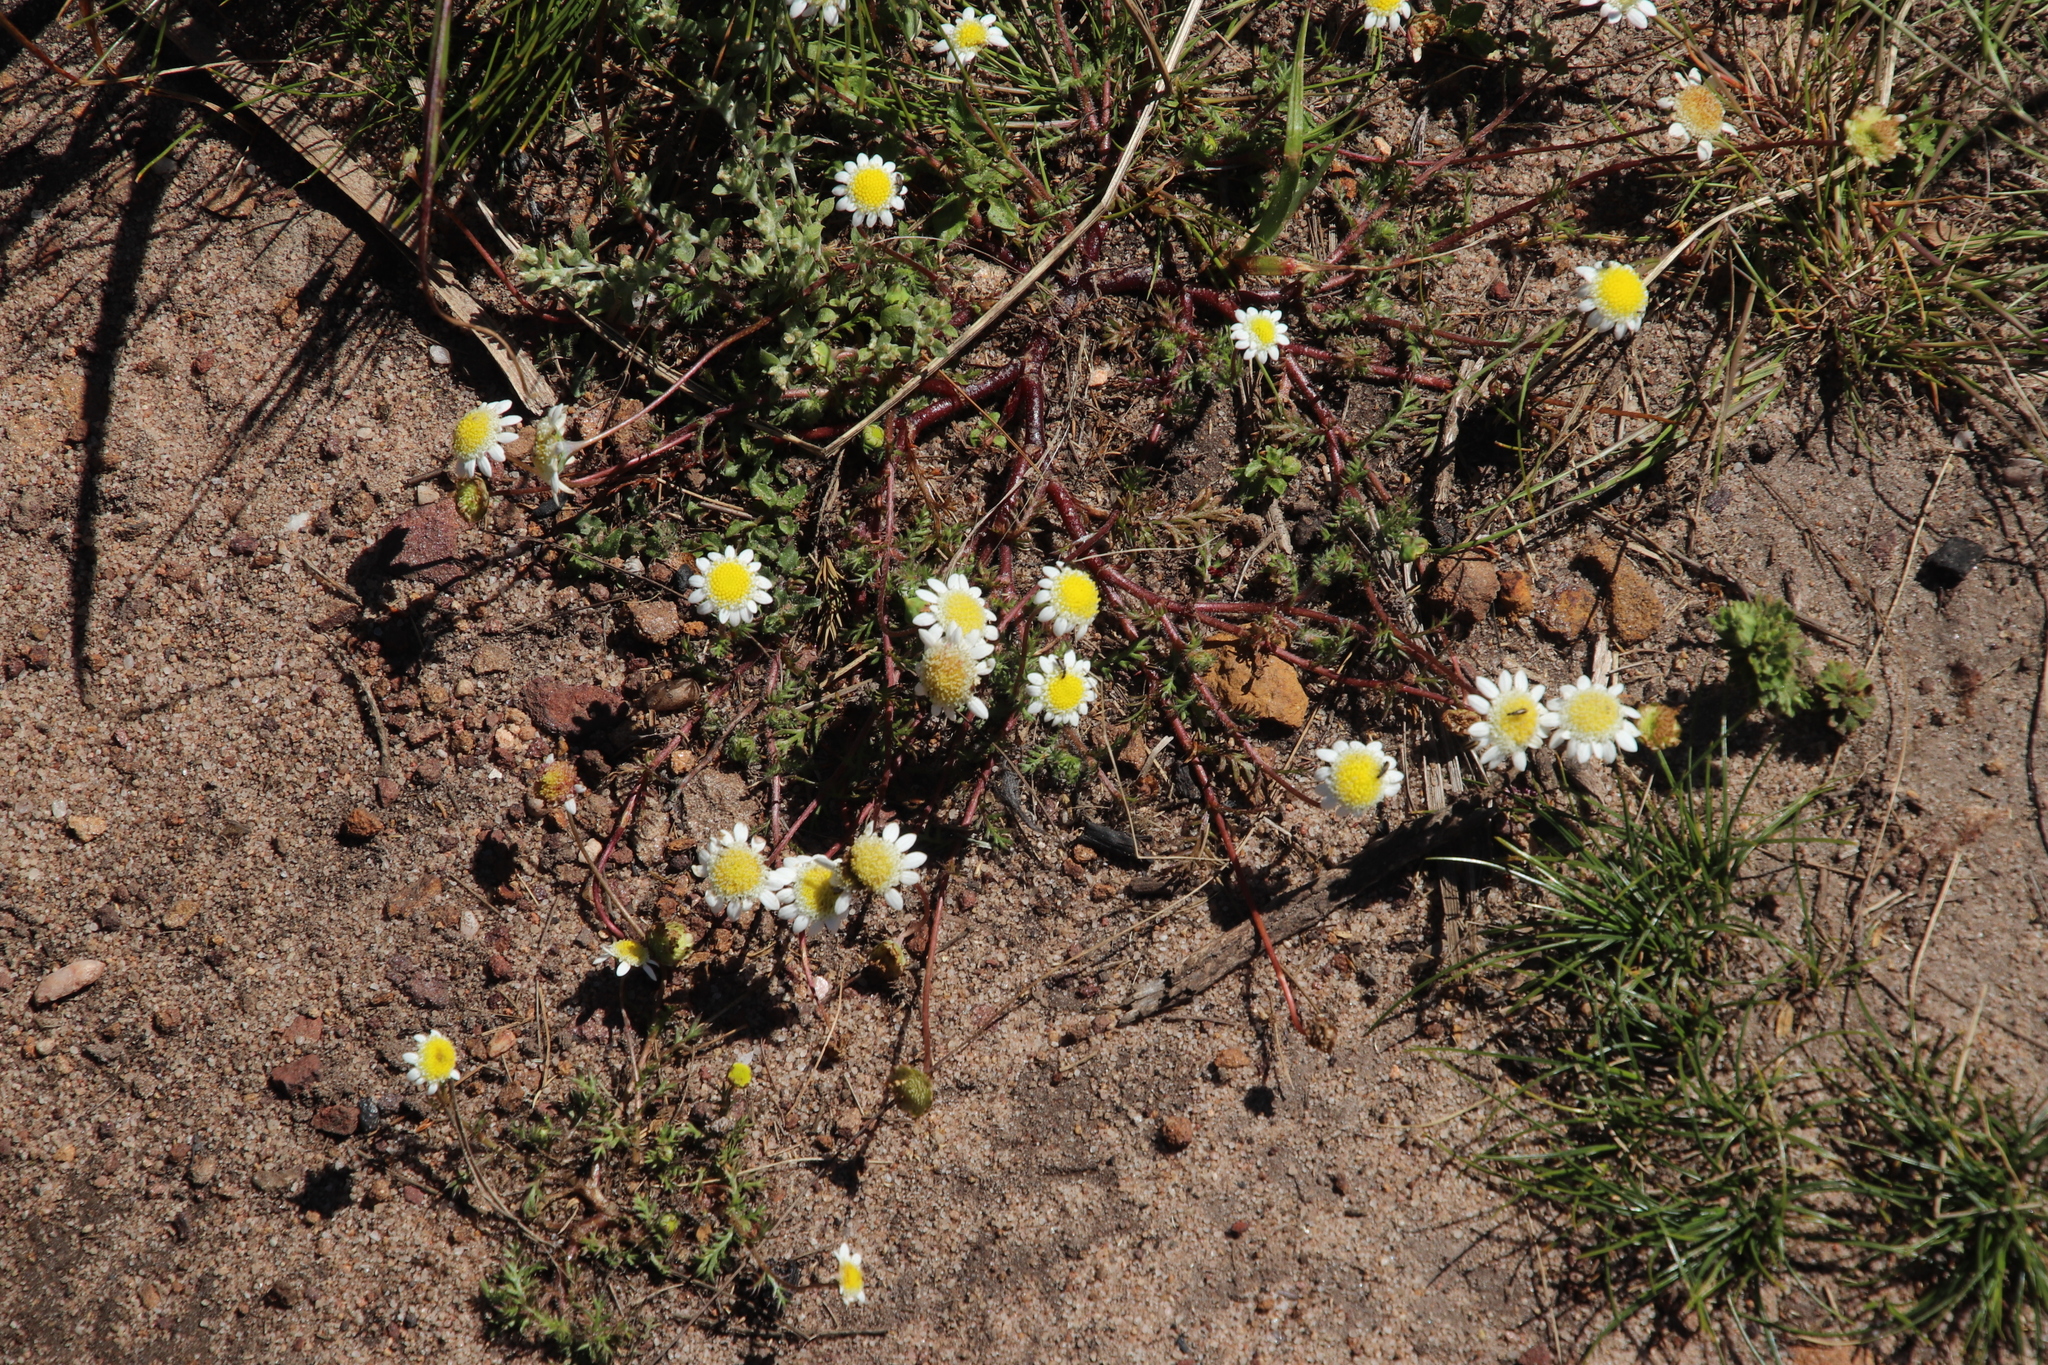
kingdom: Plantae
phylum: Tracheophyta
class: Magnoliopsida
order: Asterales
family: Asteraceae
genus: Cotula
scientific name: Cotula turbinata
